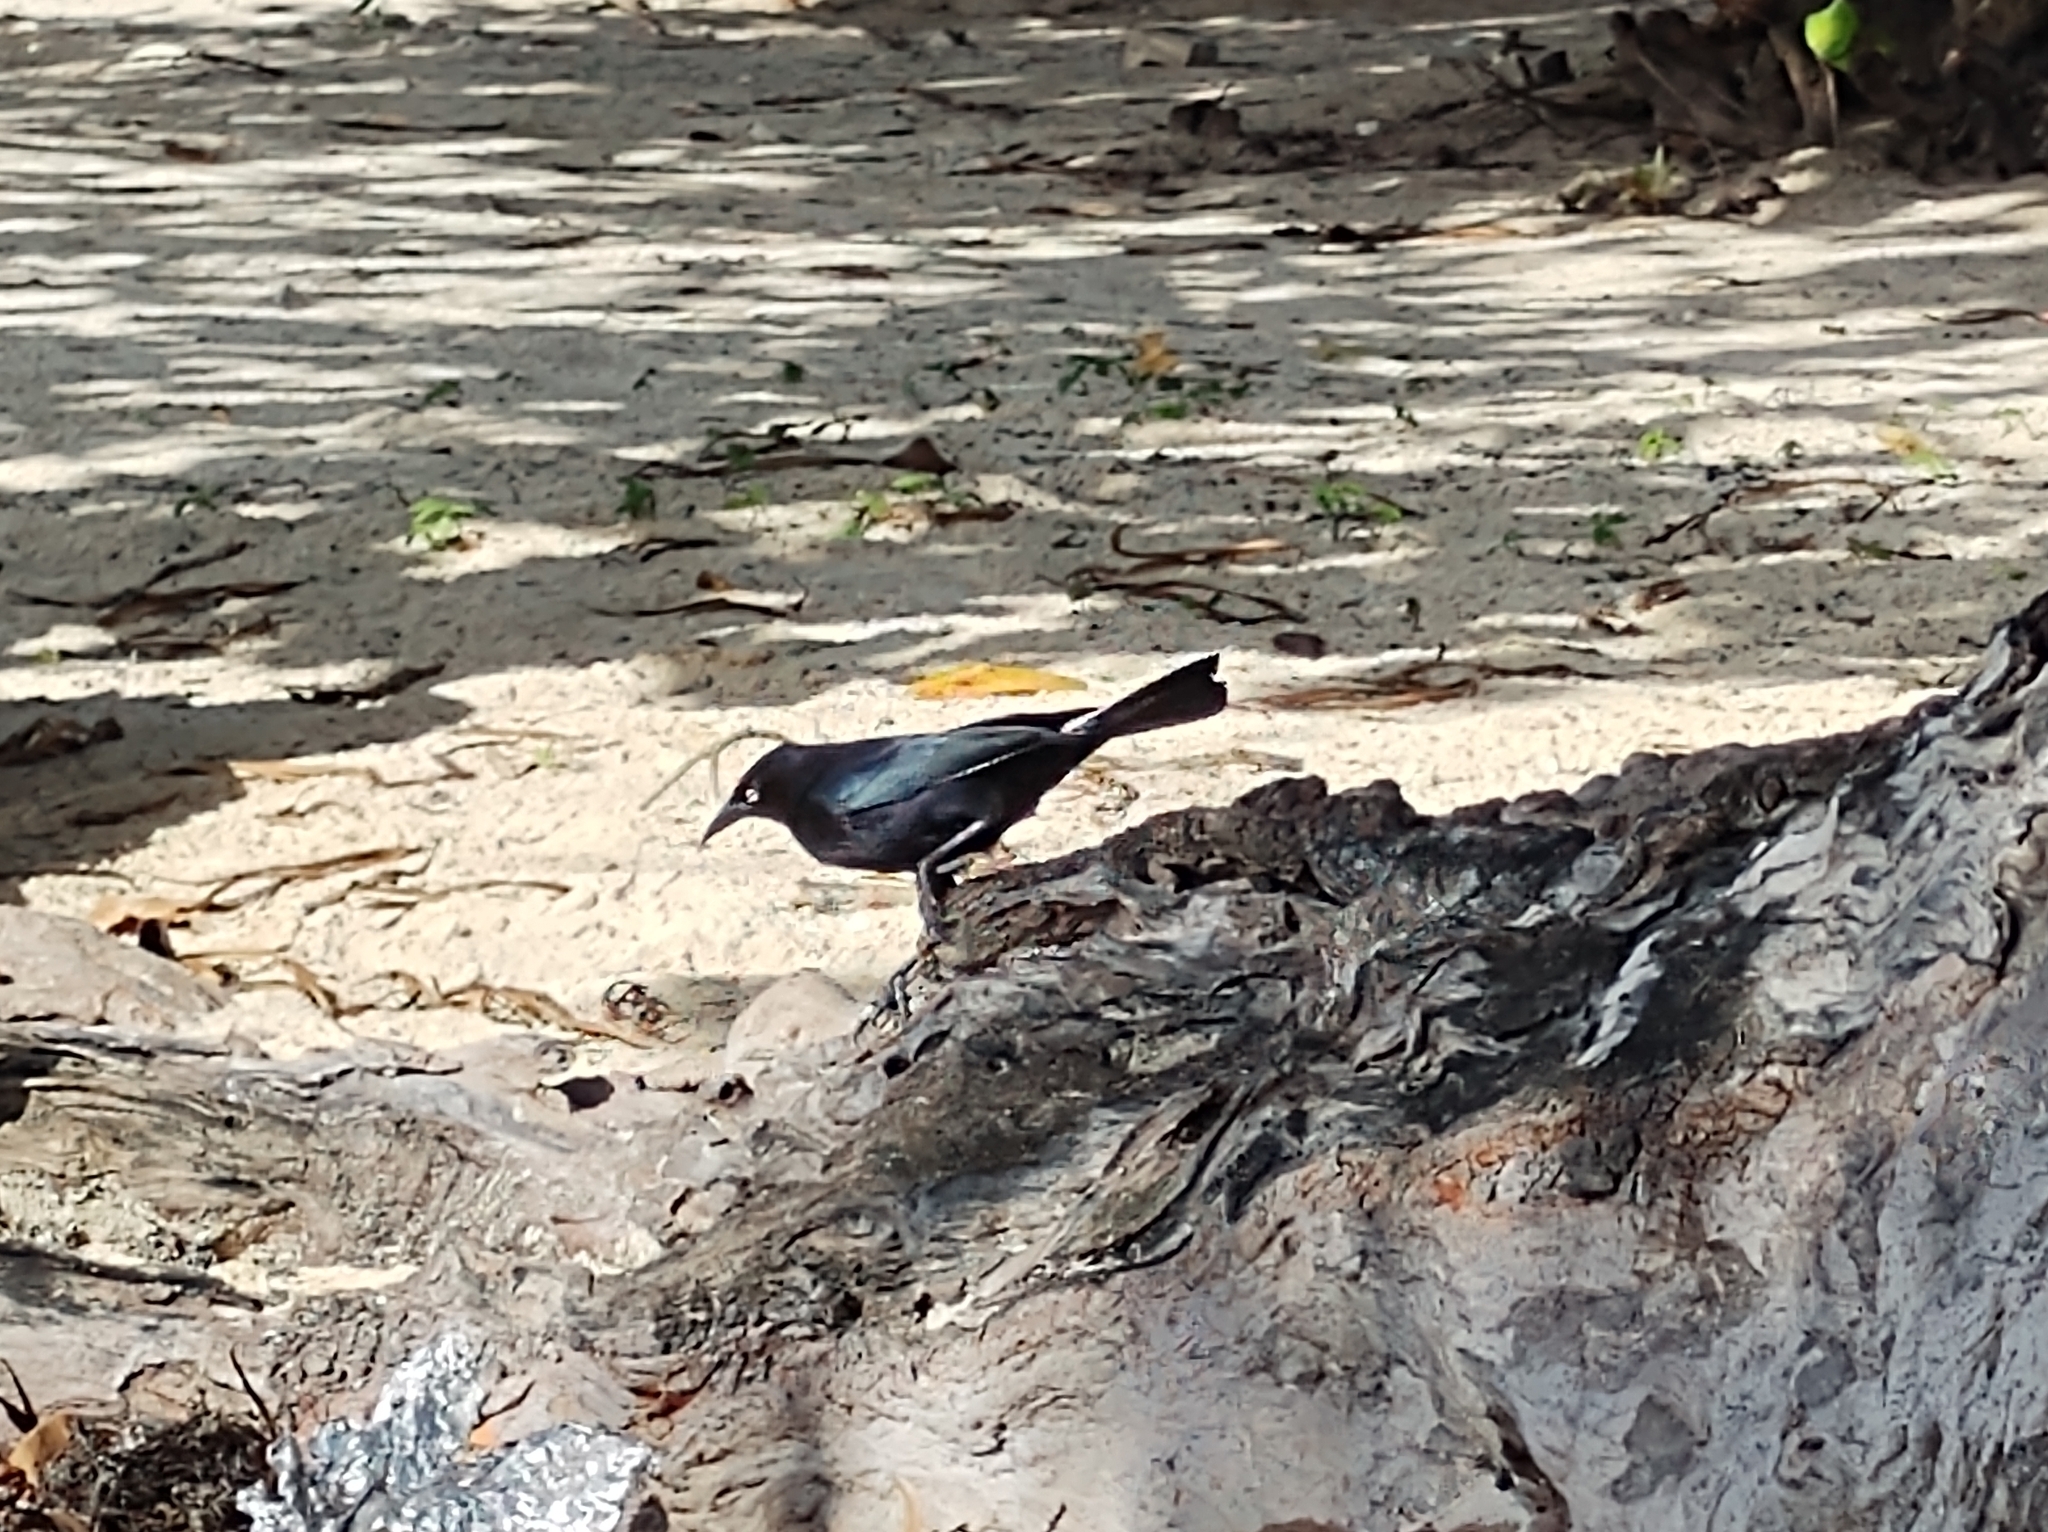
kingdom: Animalia
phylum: Chordata
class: Aves
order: Passeriformes
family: Icteridae
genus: Quiscalus
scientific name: Quiscalus lugubris
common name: Carib grackle
